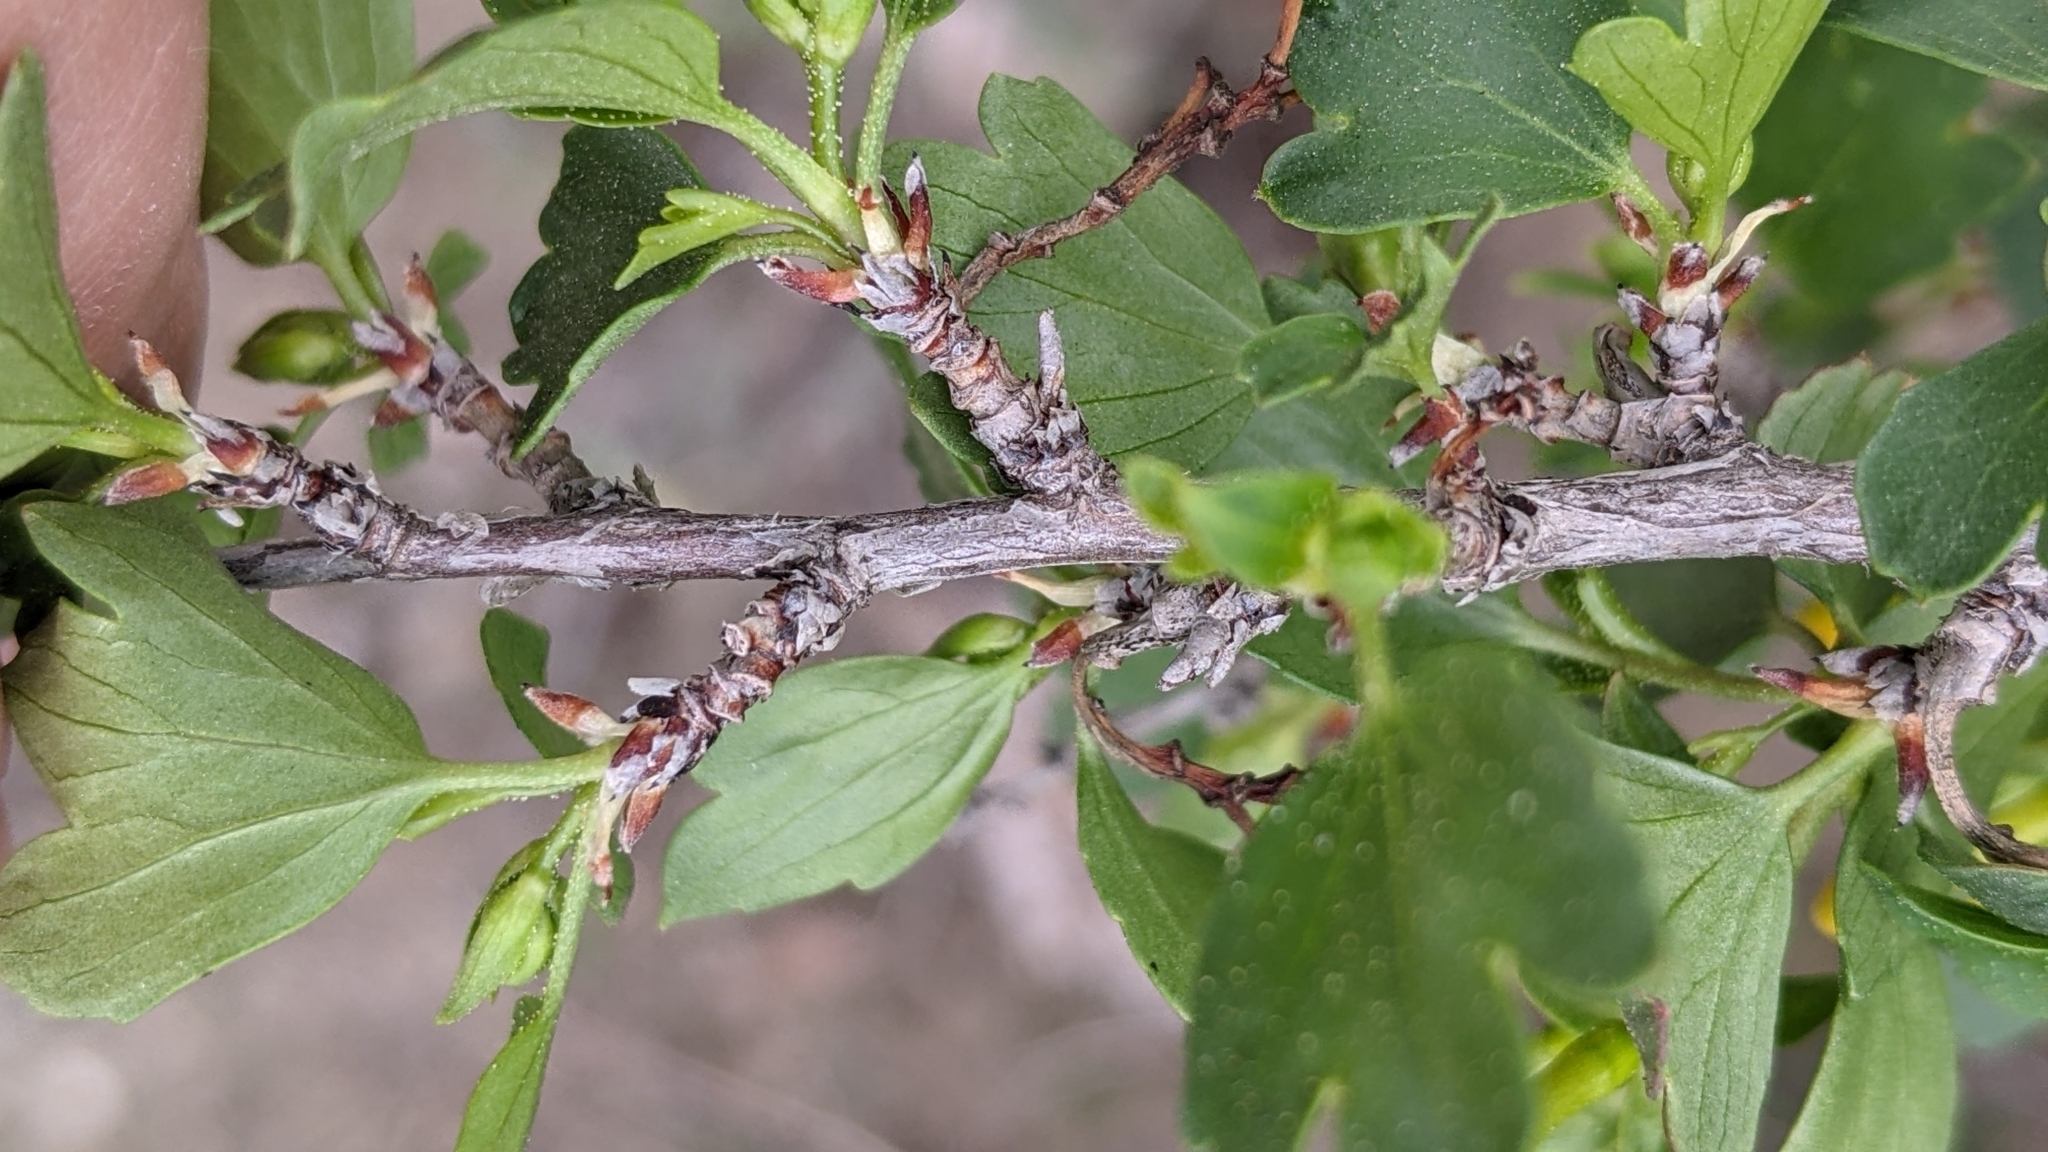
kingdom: Plantae
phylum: Tracheophyta
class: Magnoliopsida
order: Saxifragales
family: Grossulariaceae
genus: Ribes
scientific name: Ribes aureum
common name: Golden currant
